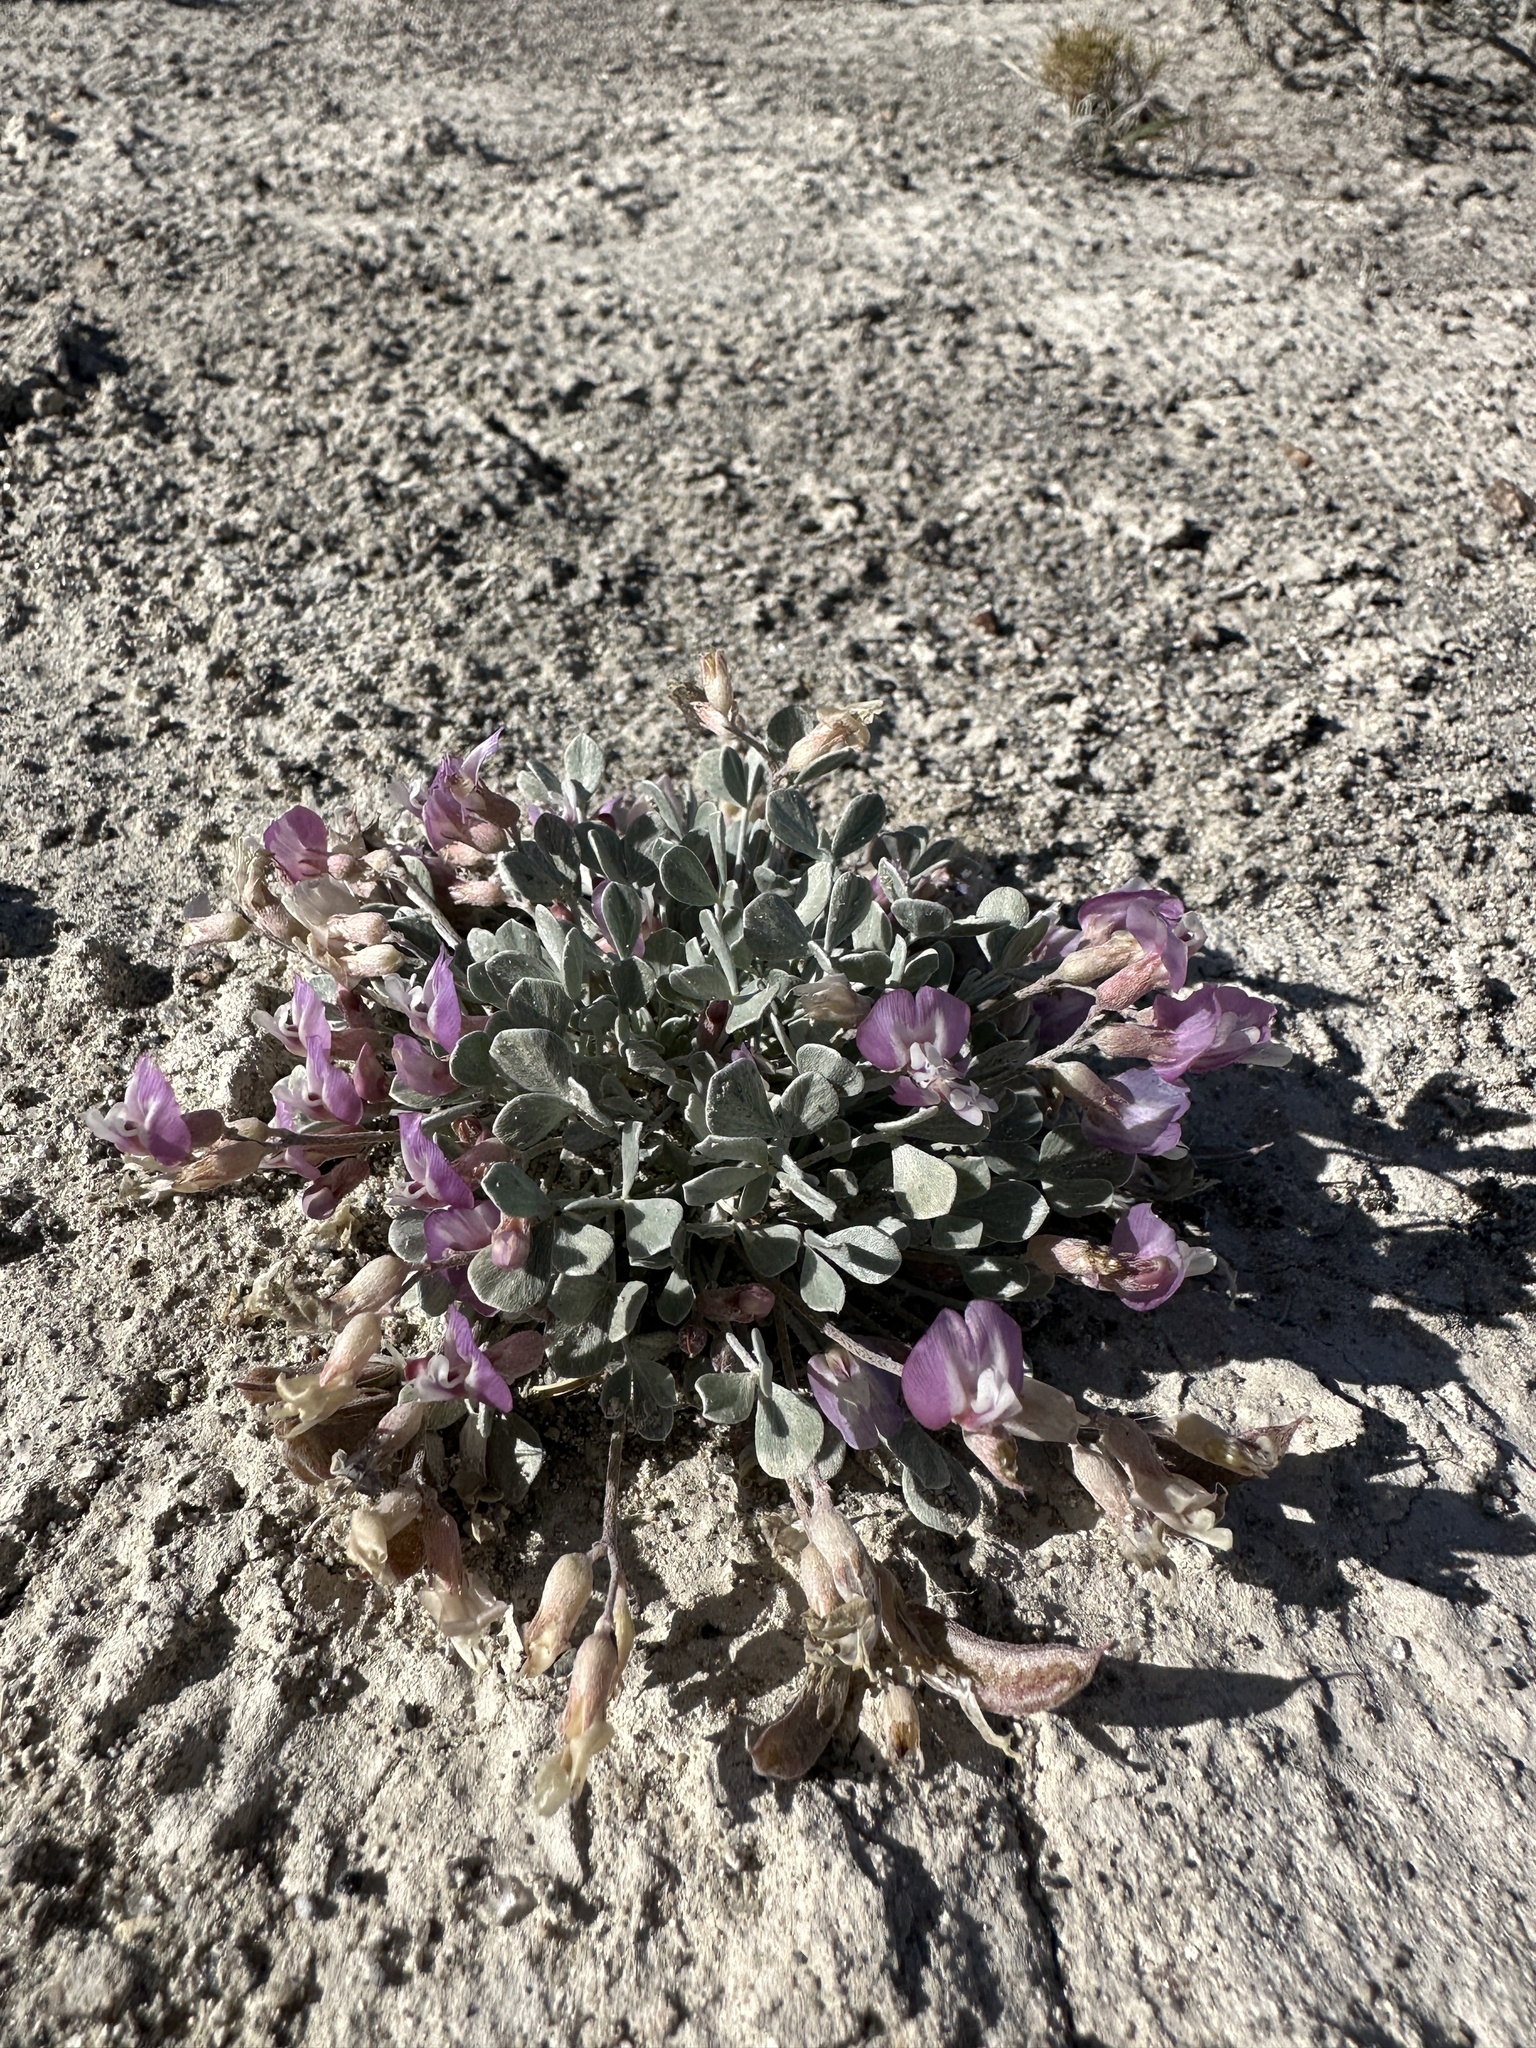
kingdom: Plantae
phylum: Tracheophyta
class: Magnoliopsida
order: Fabales
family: Fabaceae
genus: Astragalus
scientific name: Astragalus calycosus
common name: King's milkvetch
